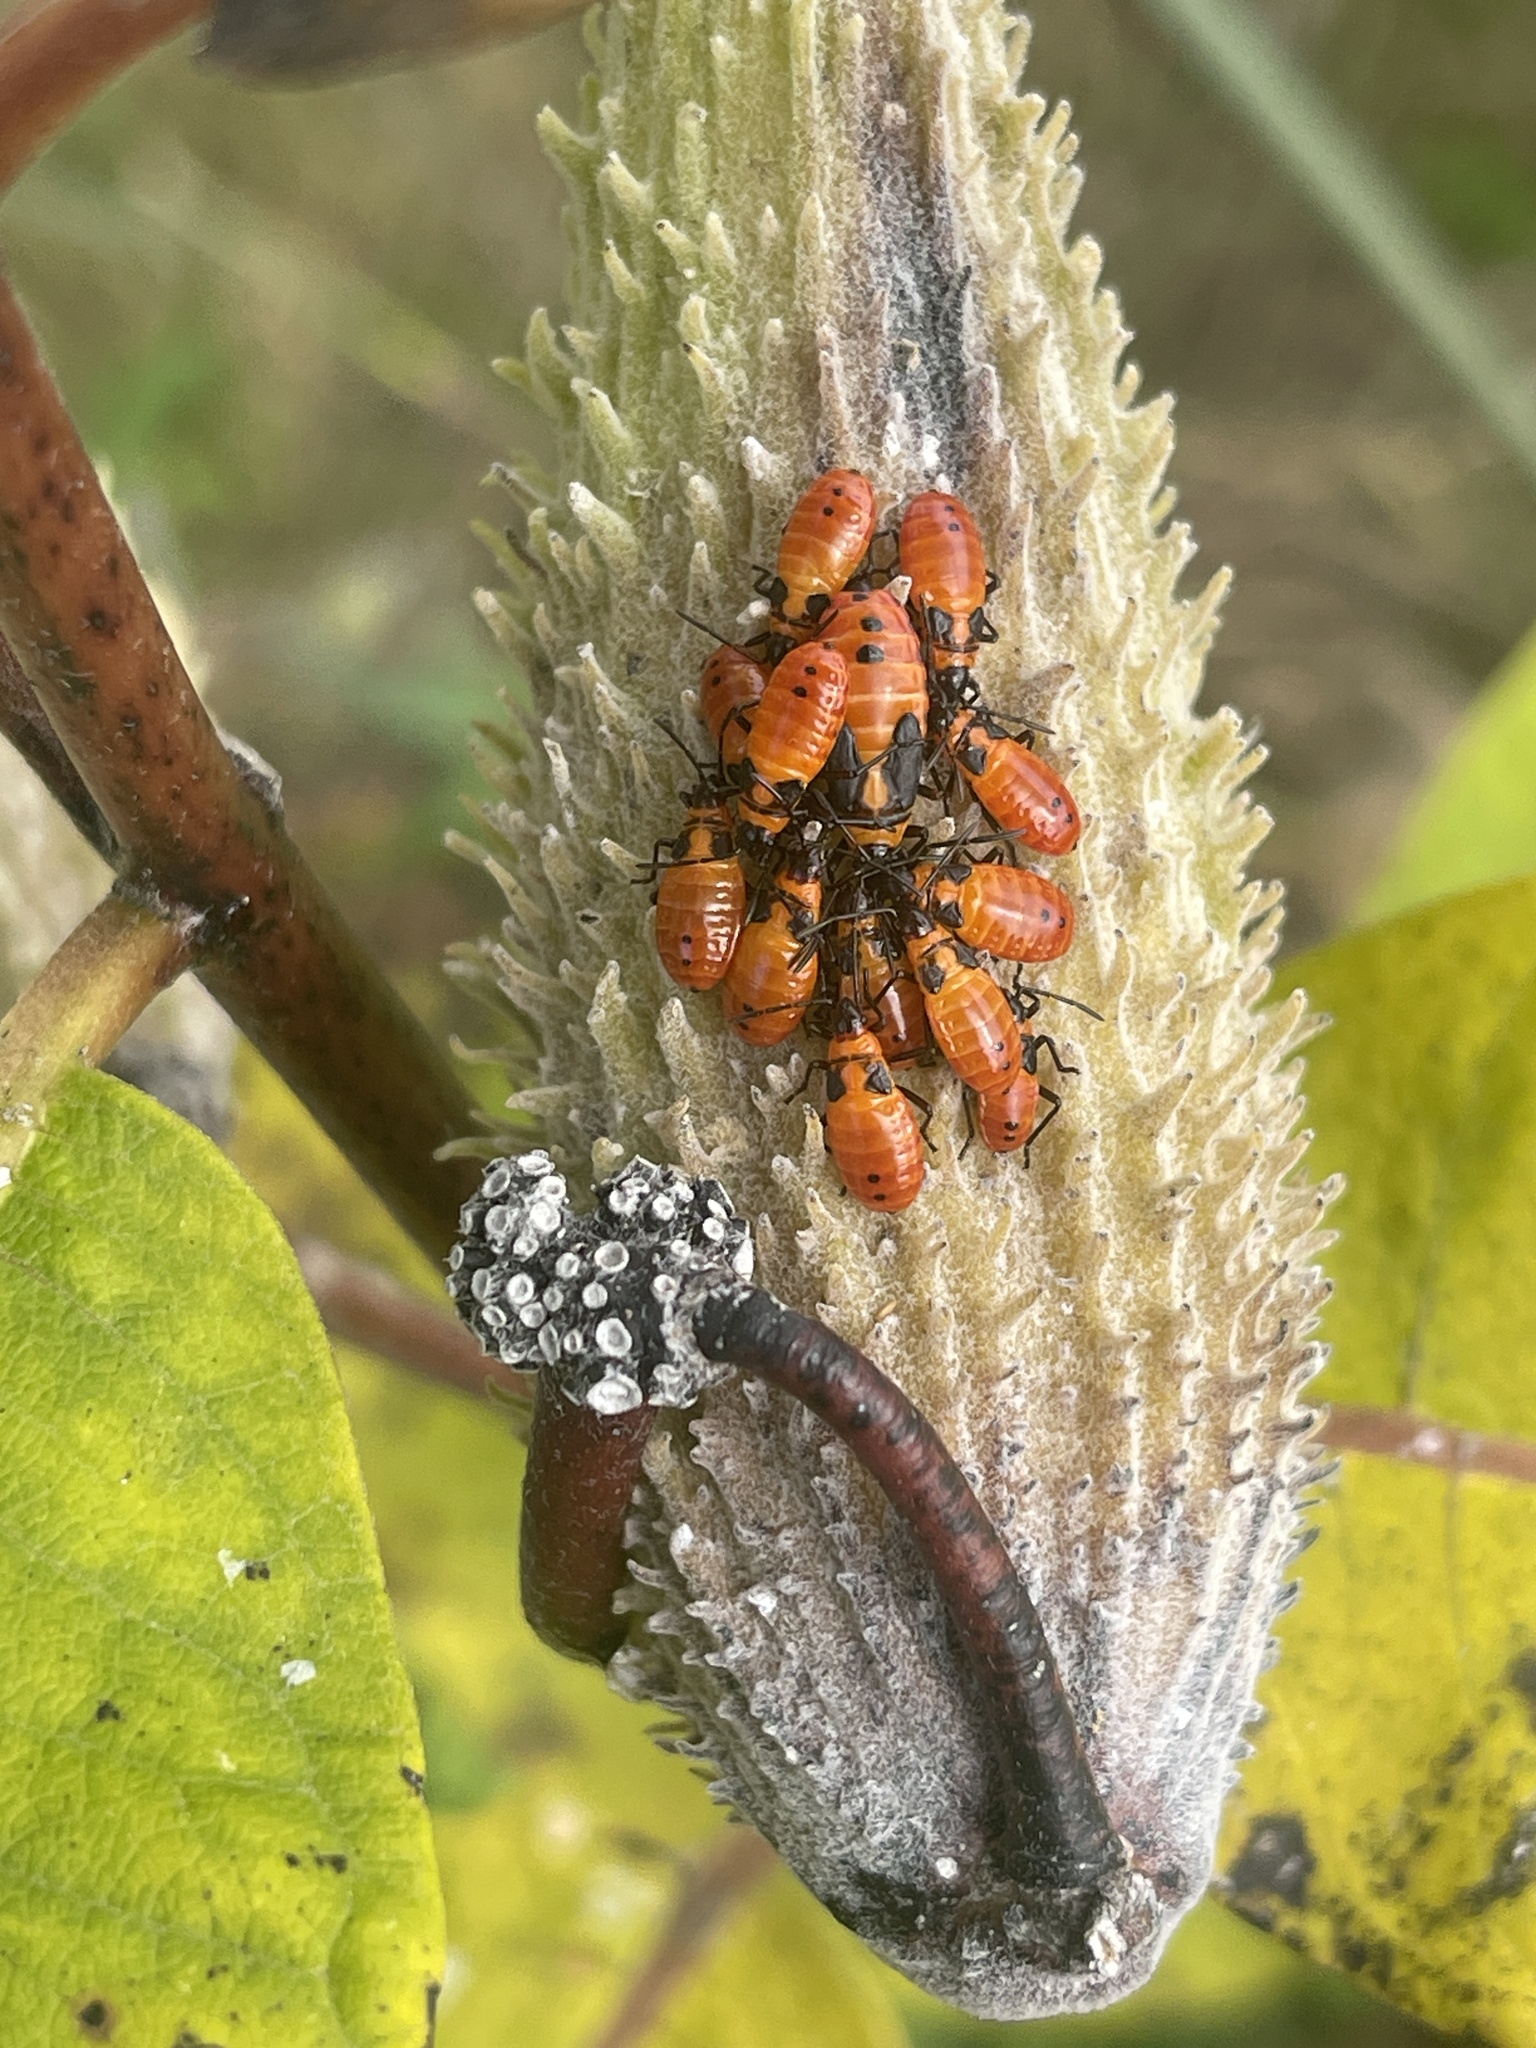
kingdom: Animalia
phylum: Arthropoda
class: Insecta
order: Hemiptera
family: Lygaeidae
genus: Oncopeltus
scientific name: Oncopeltus fasciatus
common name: Large milkweed bug
